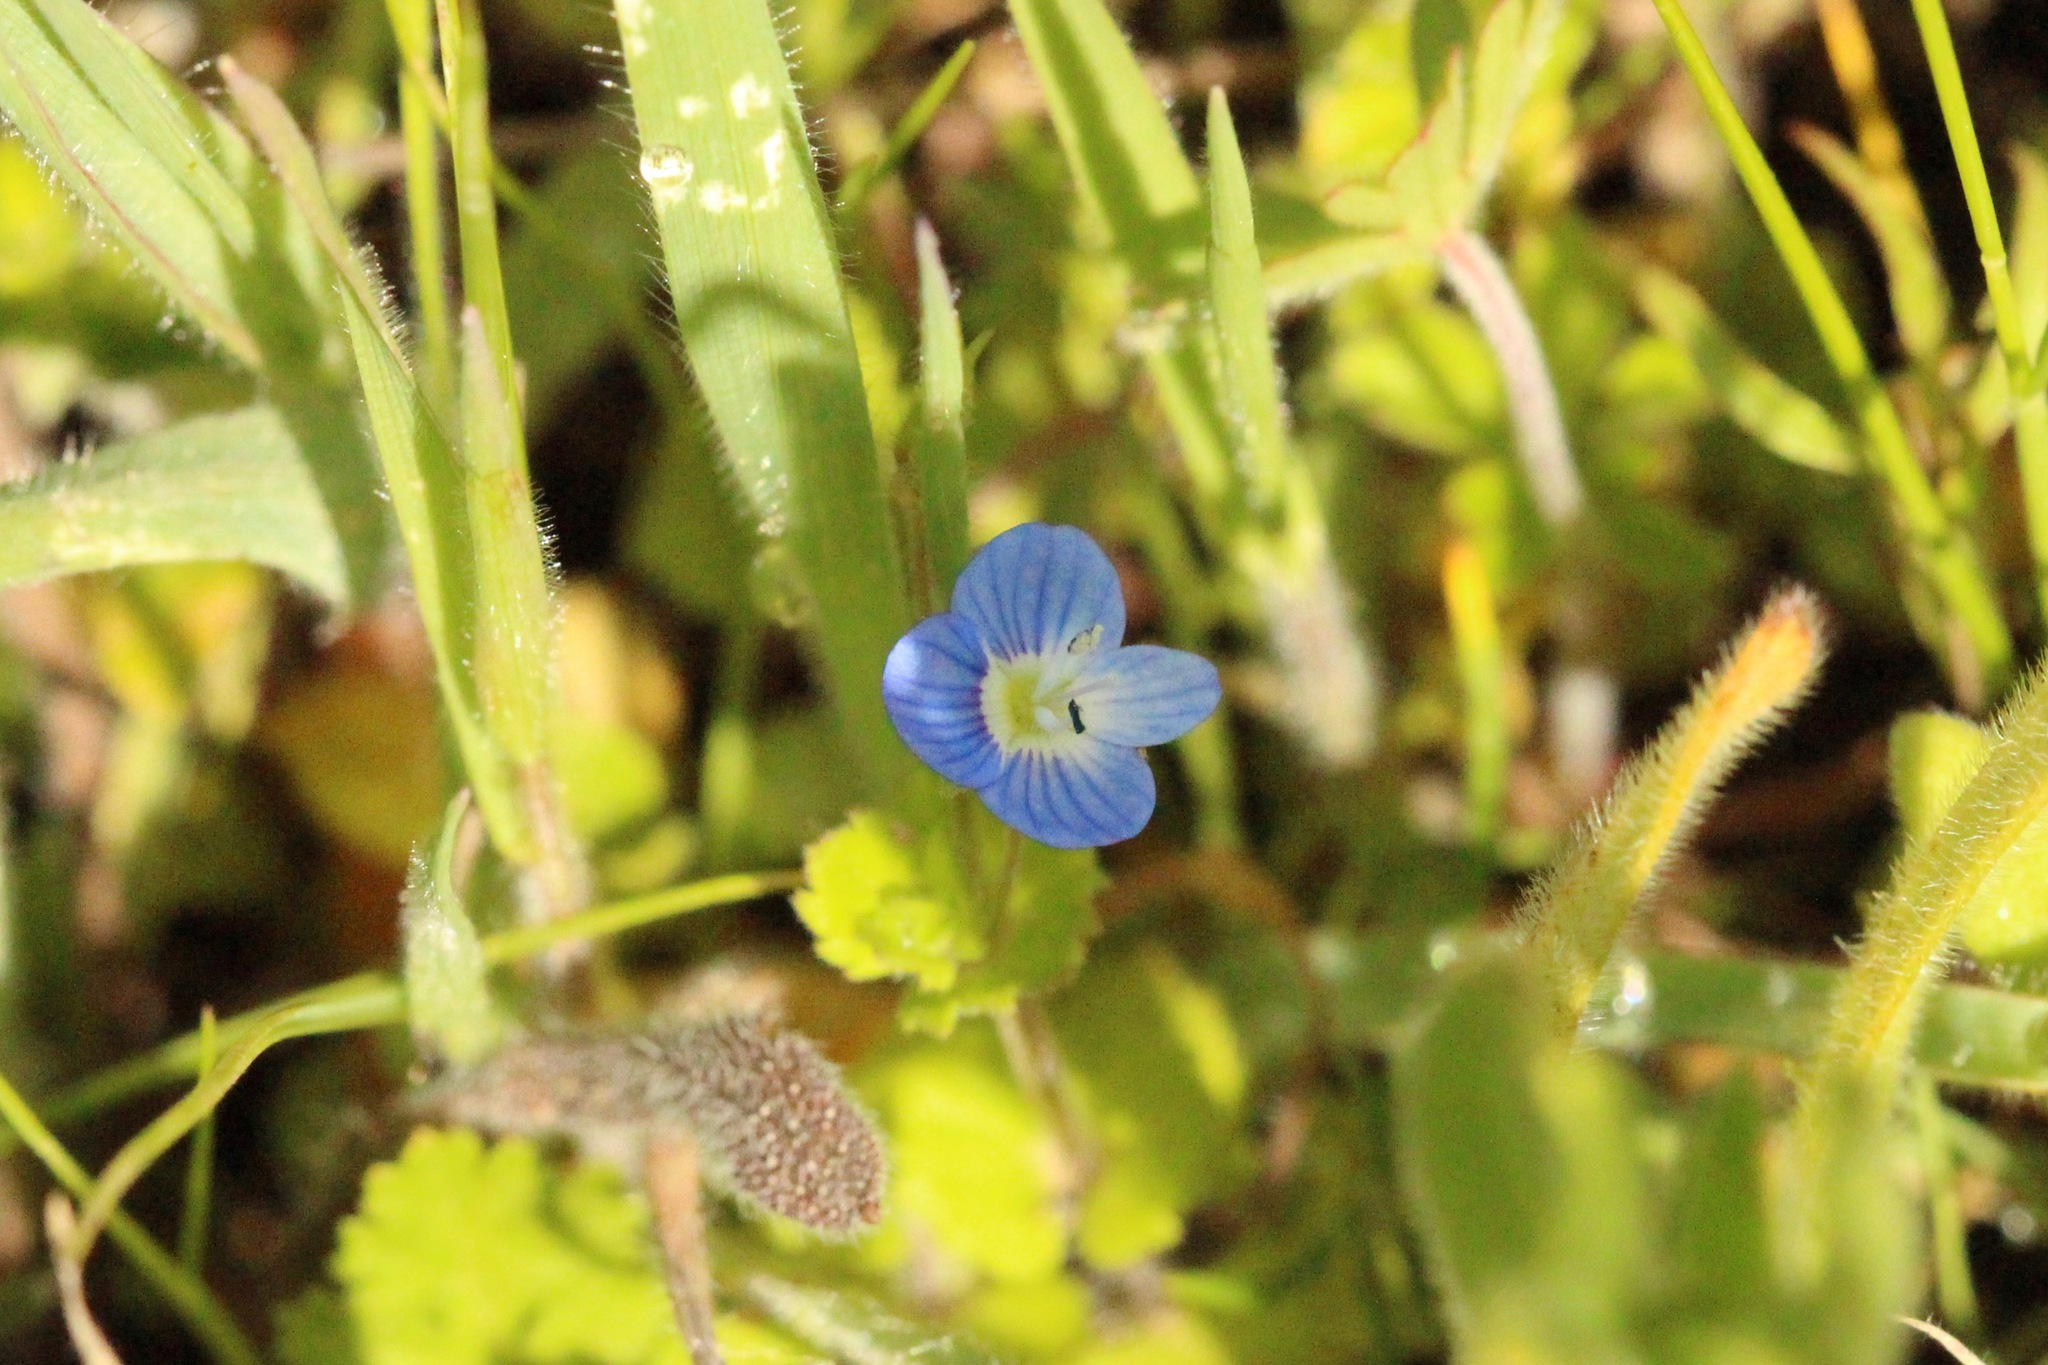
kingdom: Plantae
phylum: Tracheophyta
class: Magnoliopsida
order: Lamiales
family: Plantaginaceae
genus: Veronica
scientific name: Veronica persica
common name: Common field-speedwell
